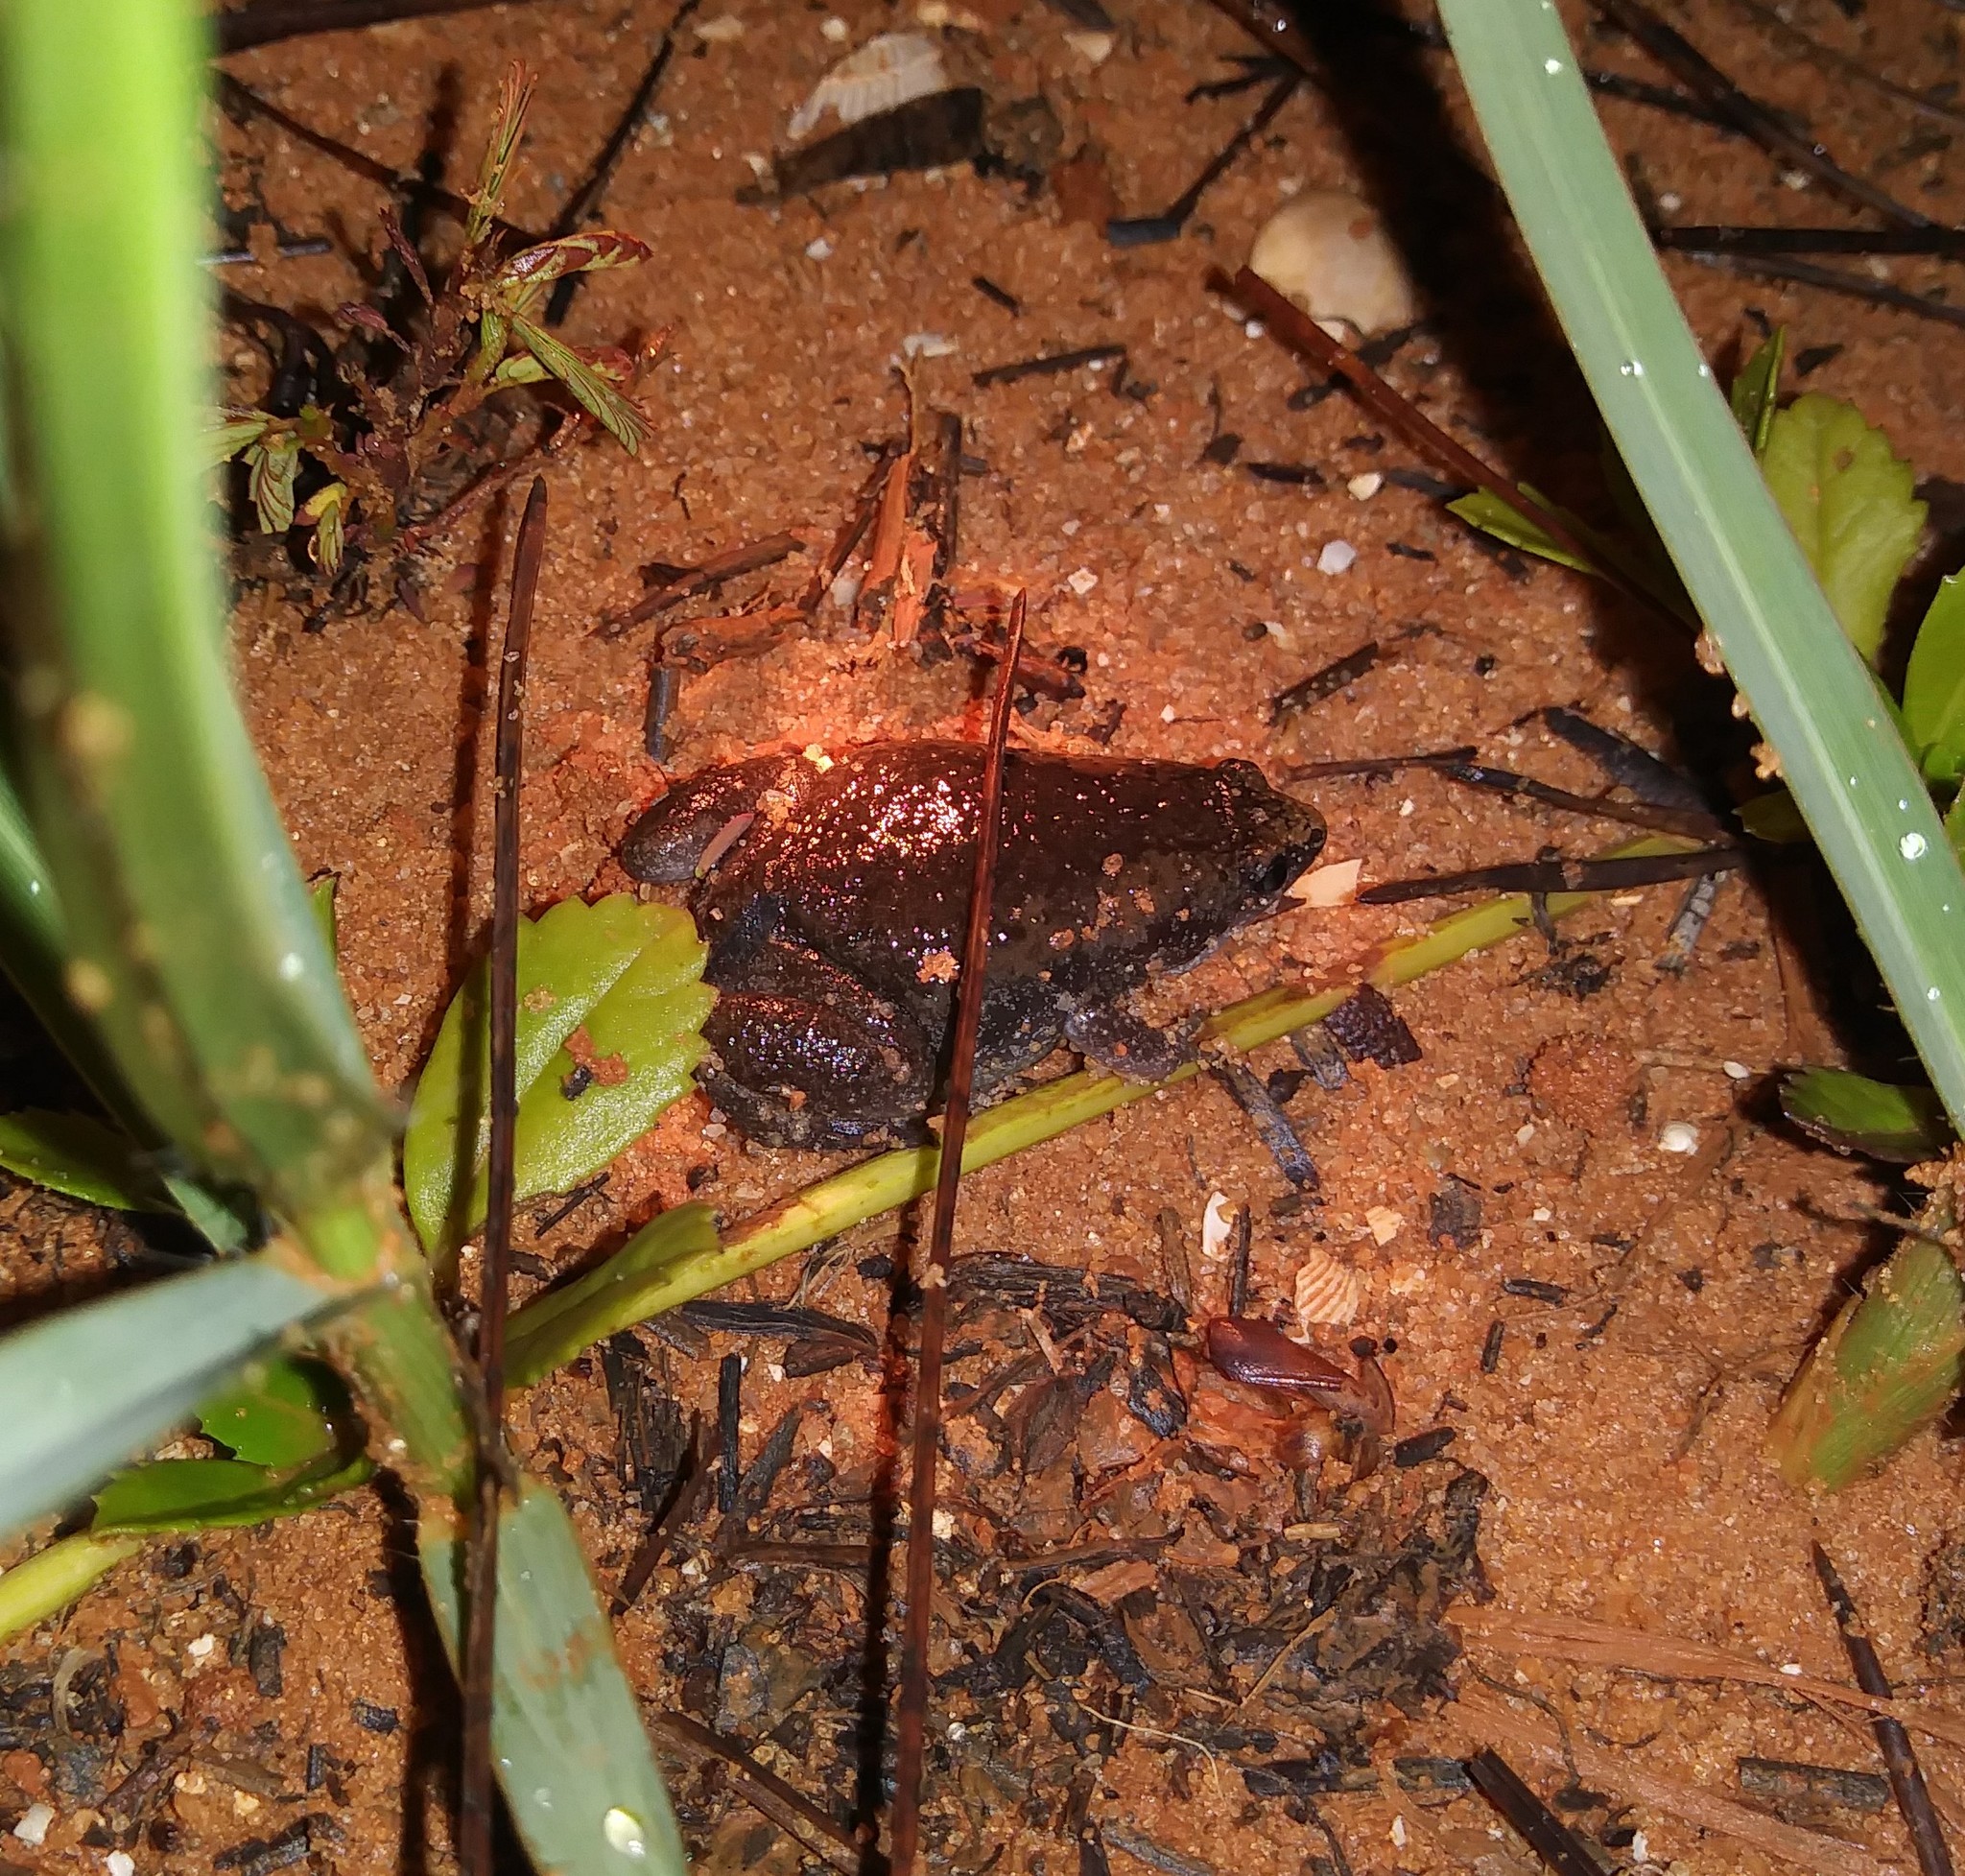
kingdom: Animalia
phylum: Chordata
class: Amphibia
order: Anura
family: Microhylidae
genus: Gastrophryne
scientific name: Gastrophryne carolinensis
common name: Eastern narrowmouth toad
